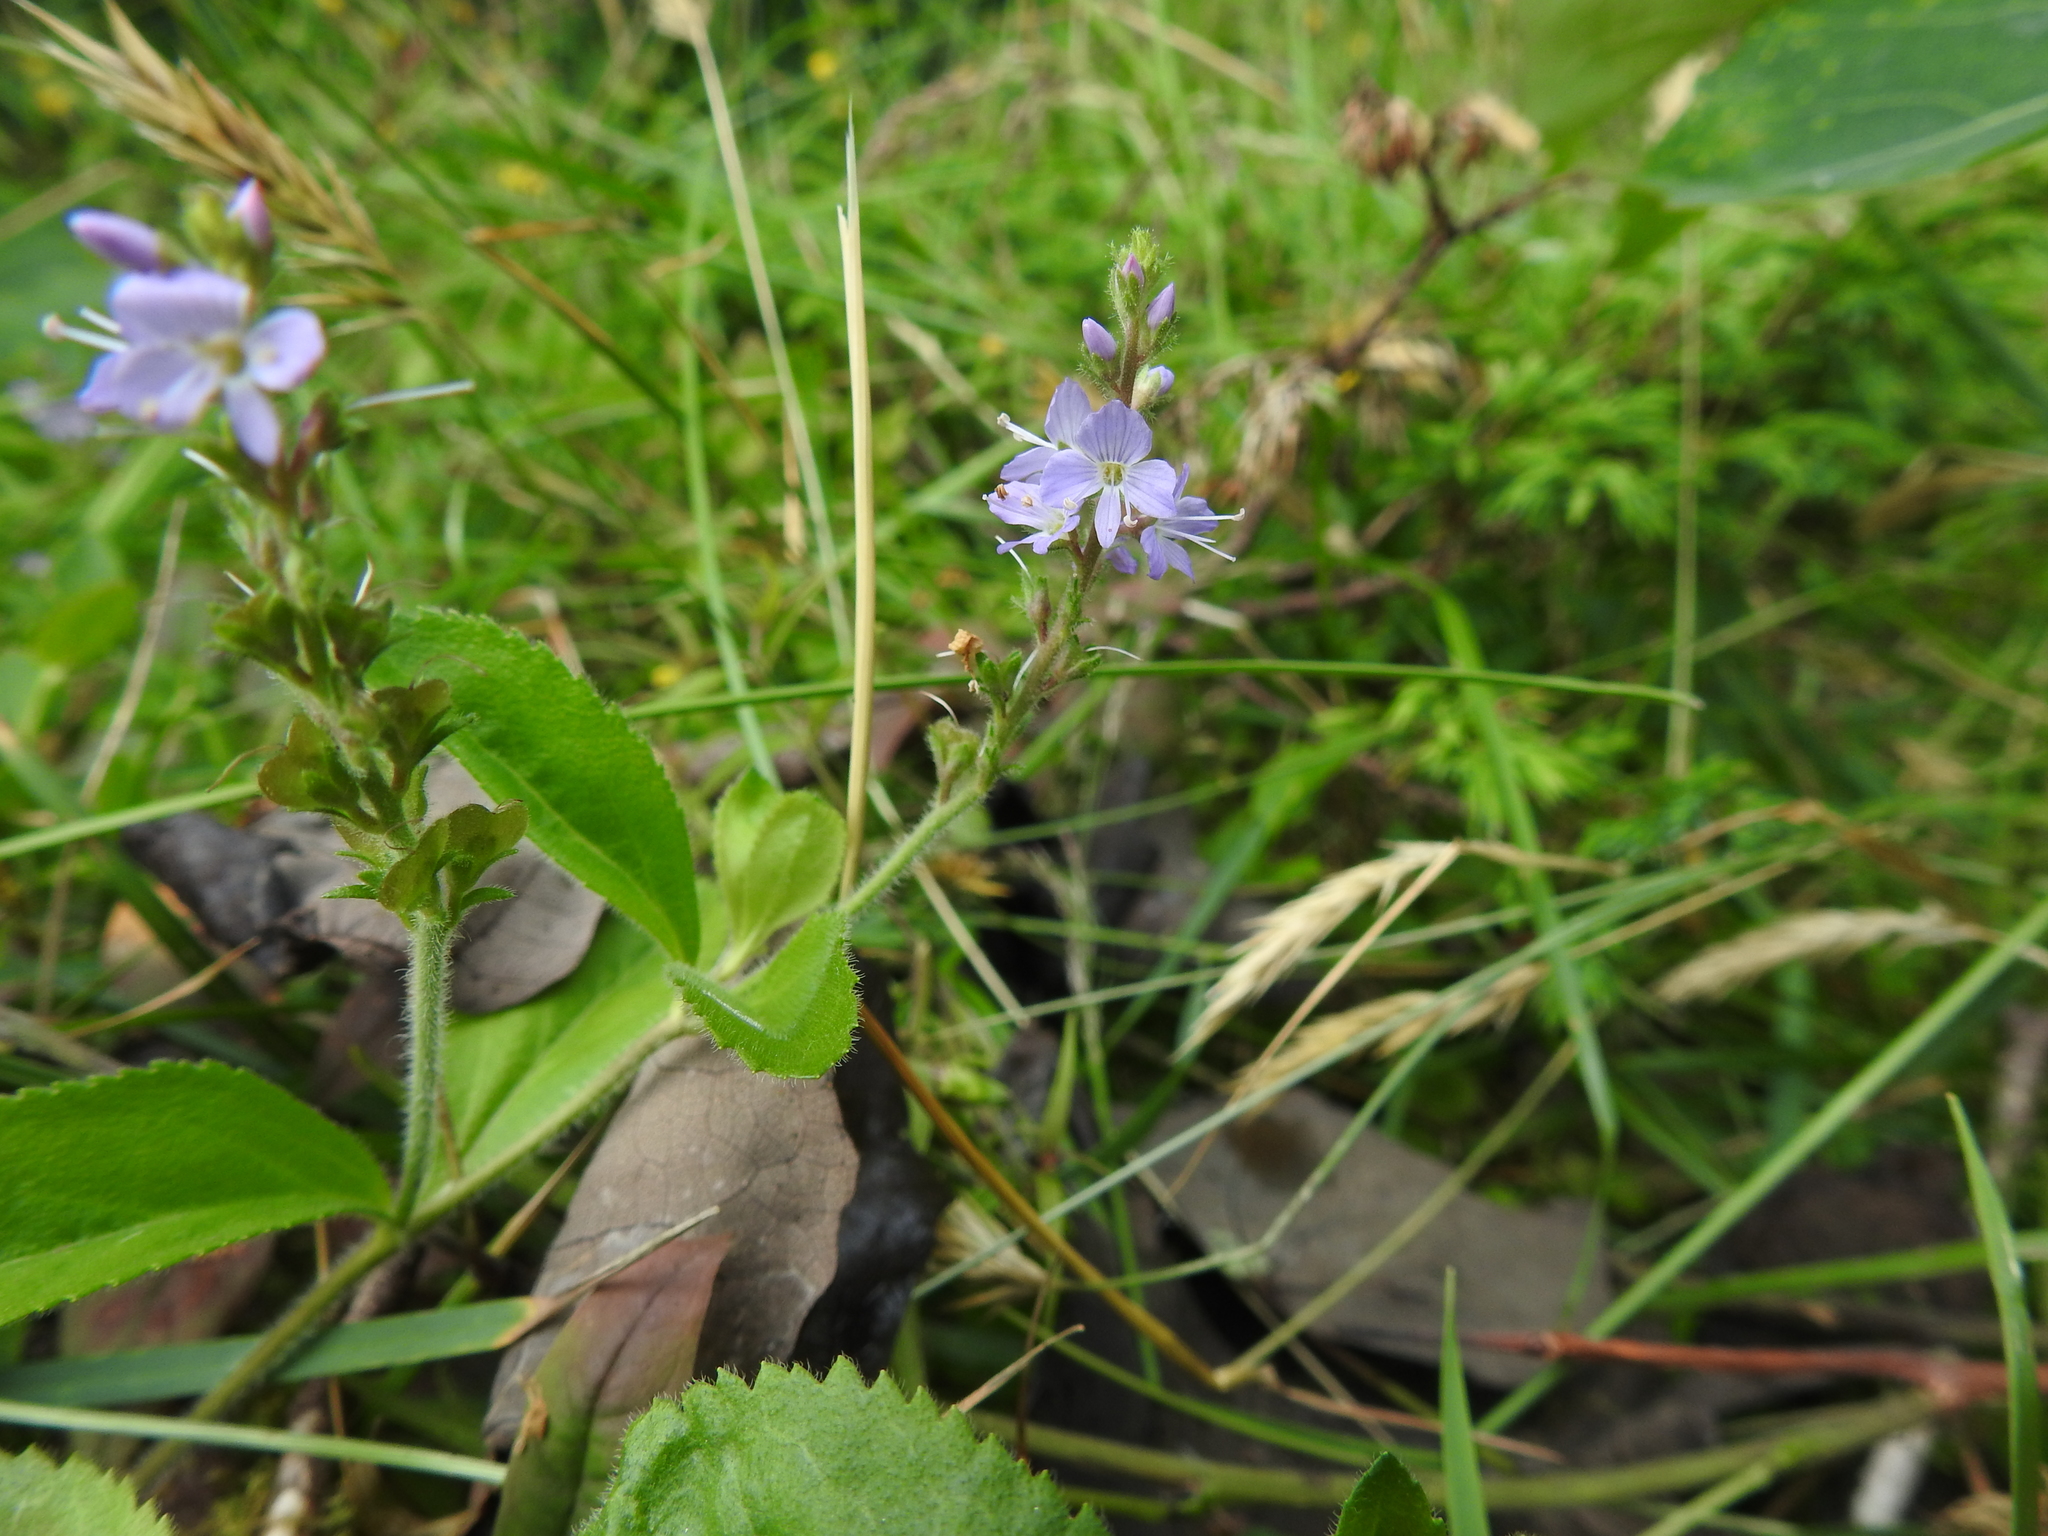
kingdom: Plantae
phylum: Tracheophyta
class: Magnoliopsida
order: Lamiales
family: Plantaginaceae
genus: Veronica
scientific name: Veronica officinalis
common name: Common speedwell
